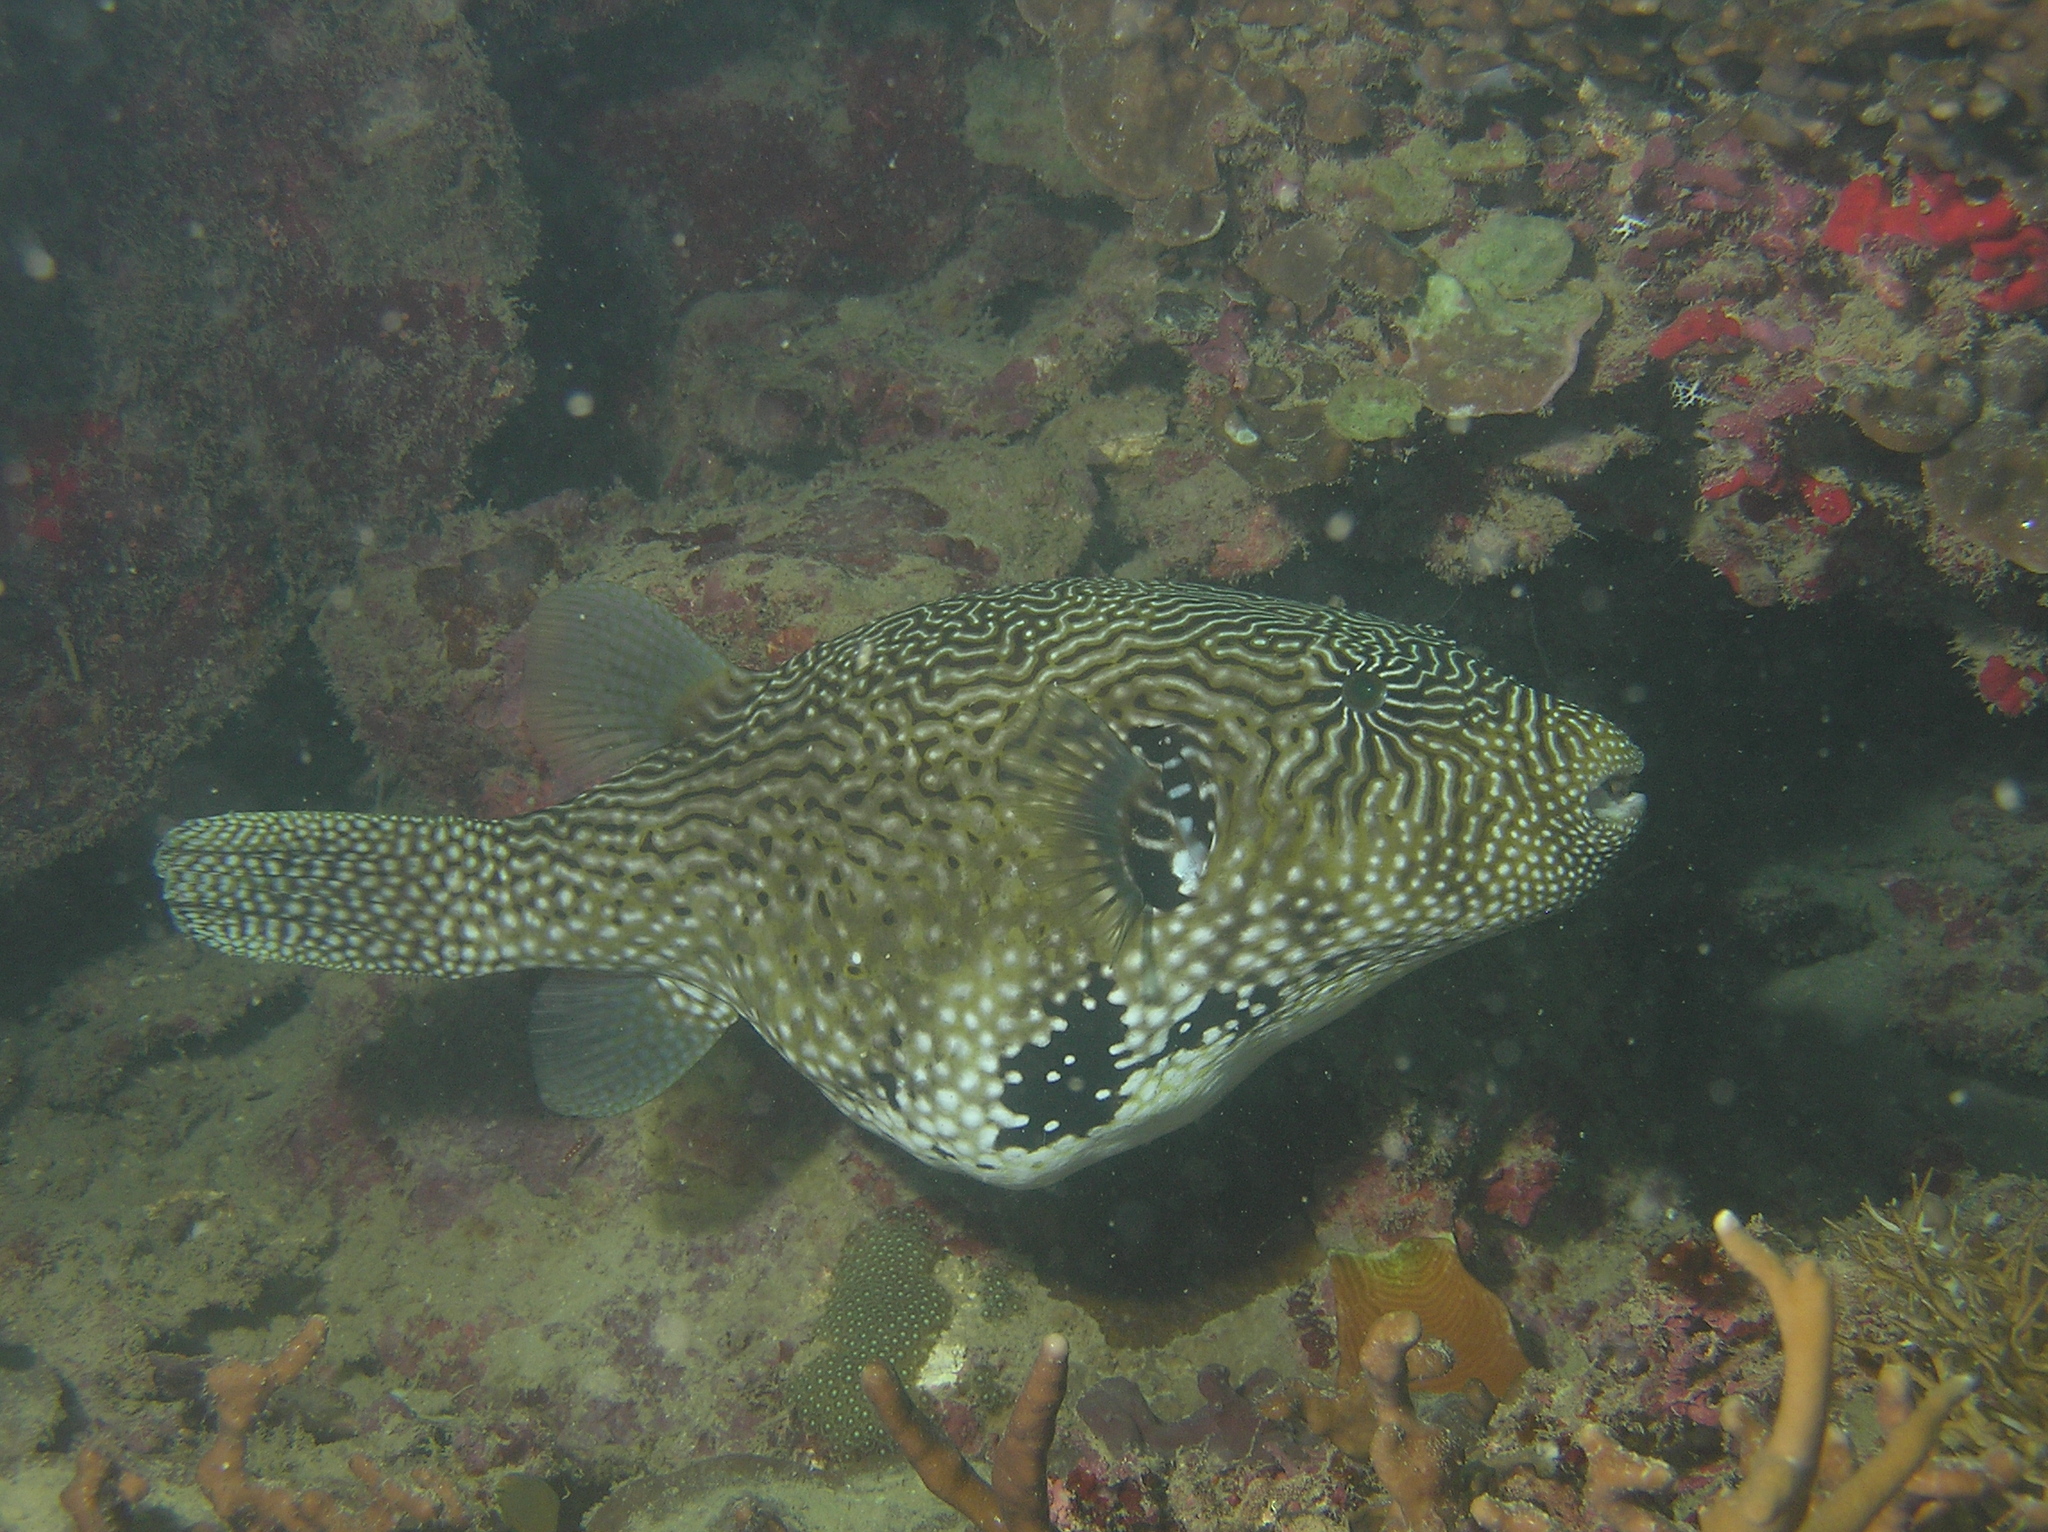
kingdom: Animalia
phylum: Chordata
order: Tetraodontiformes
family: Tetraodontidae
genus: Arothron
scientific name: Arothron mappa
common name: Map blaasop
